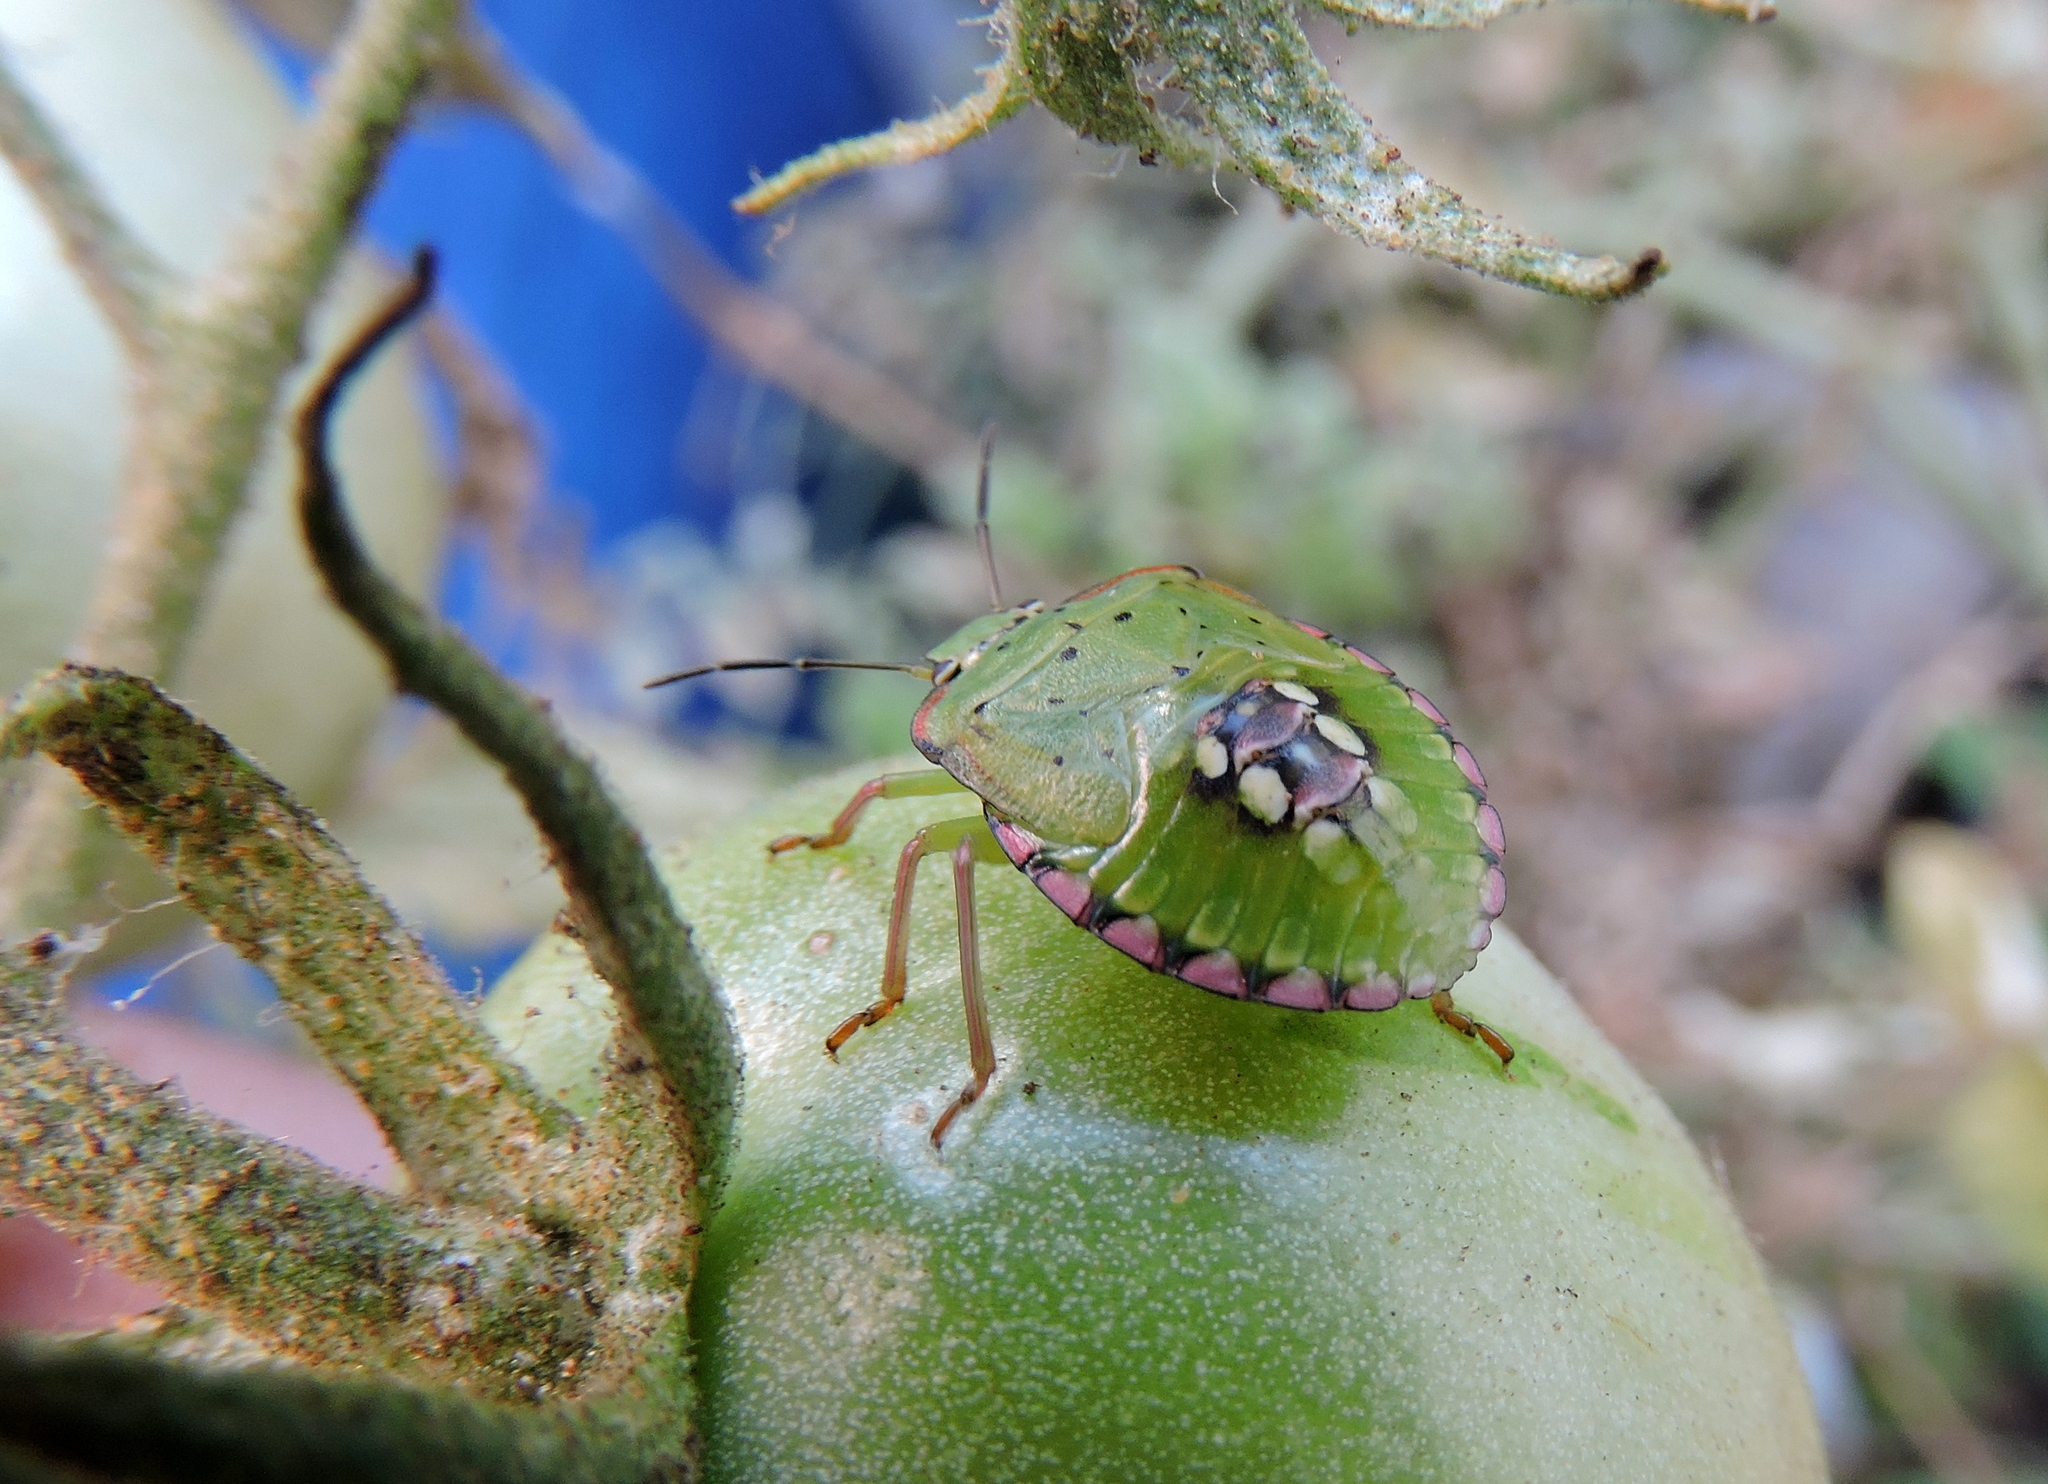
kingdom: Animalia
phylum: Arthropoda
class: Insecta
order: Hemiptera
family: Pentatomidae
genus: Nezara
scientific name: Nezara viridula
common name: Southern green stink bug
